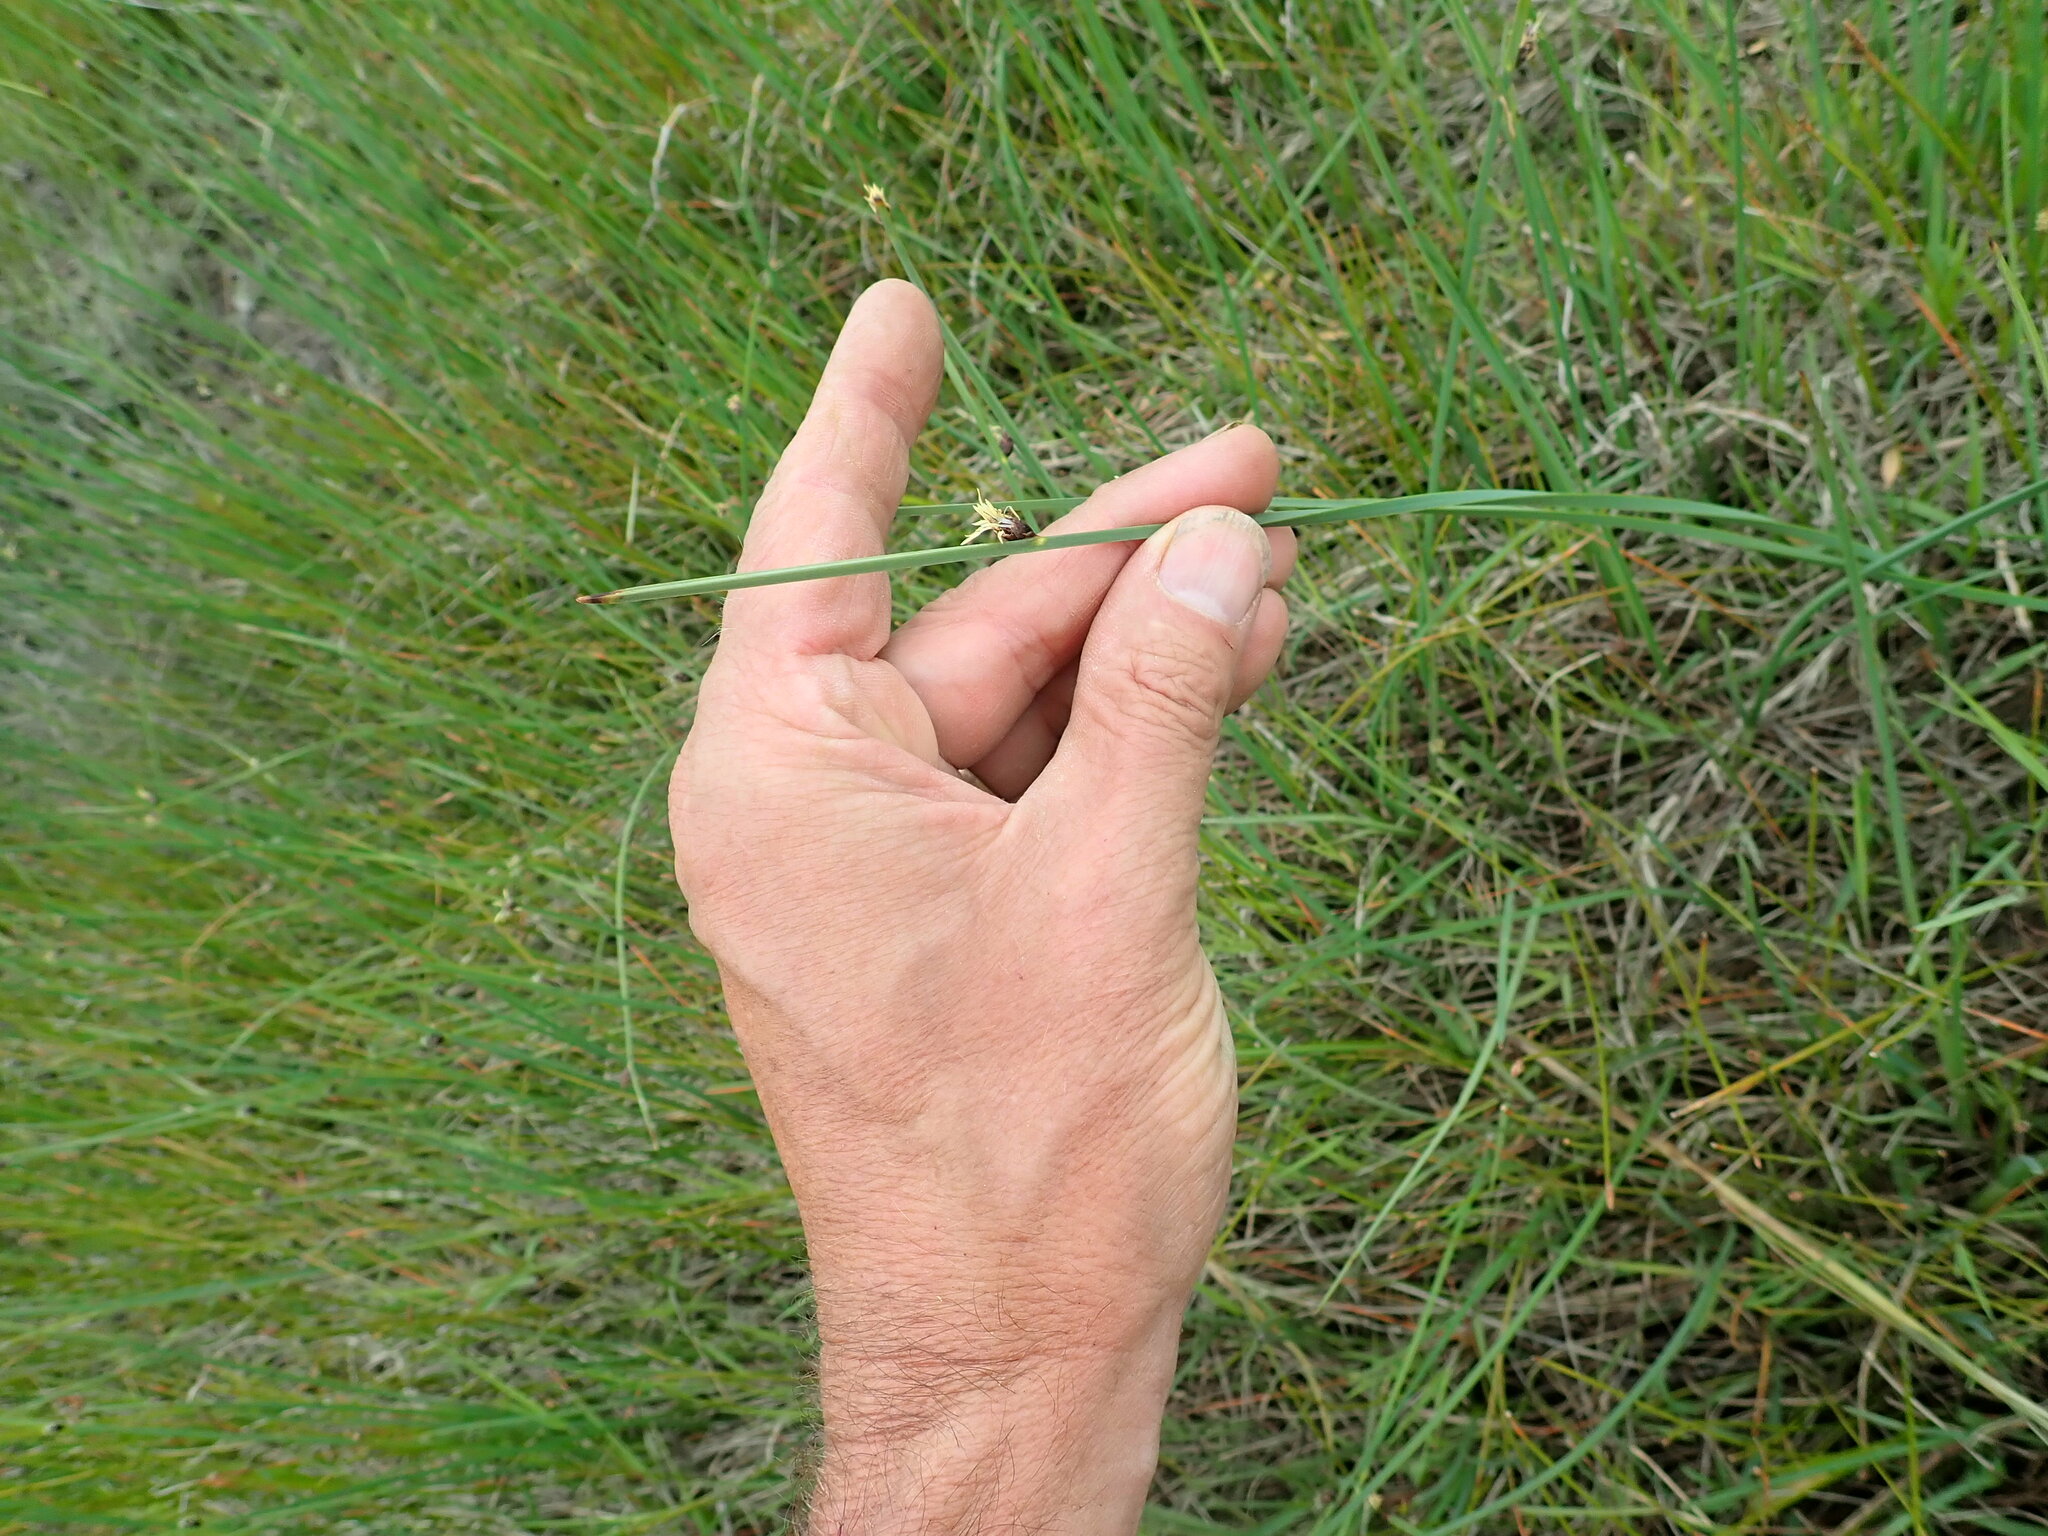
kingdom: Plantae
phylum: Tracheophyta
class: Liliopsida
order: Poales
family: Cyperaceae
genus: Schoenoplectus
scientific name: Schoenoplectus pungens
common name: Sharp club-rush
